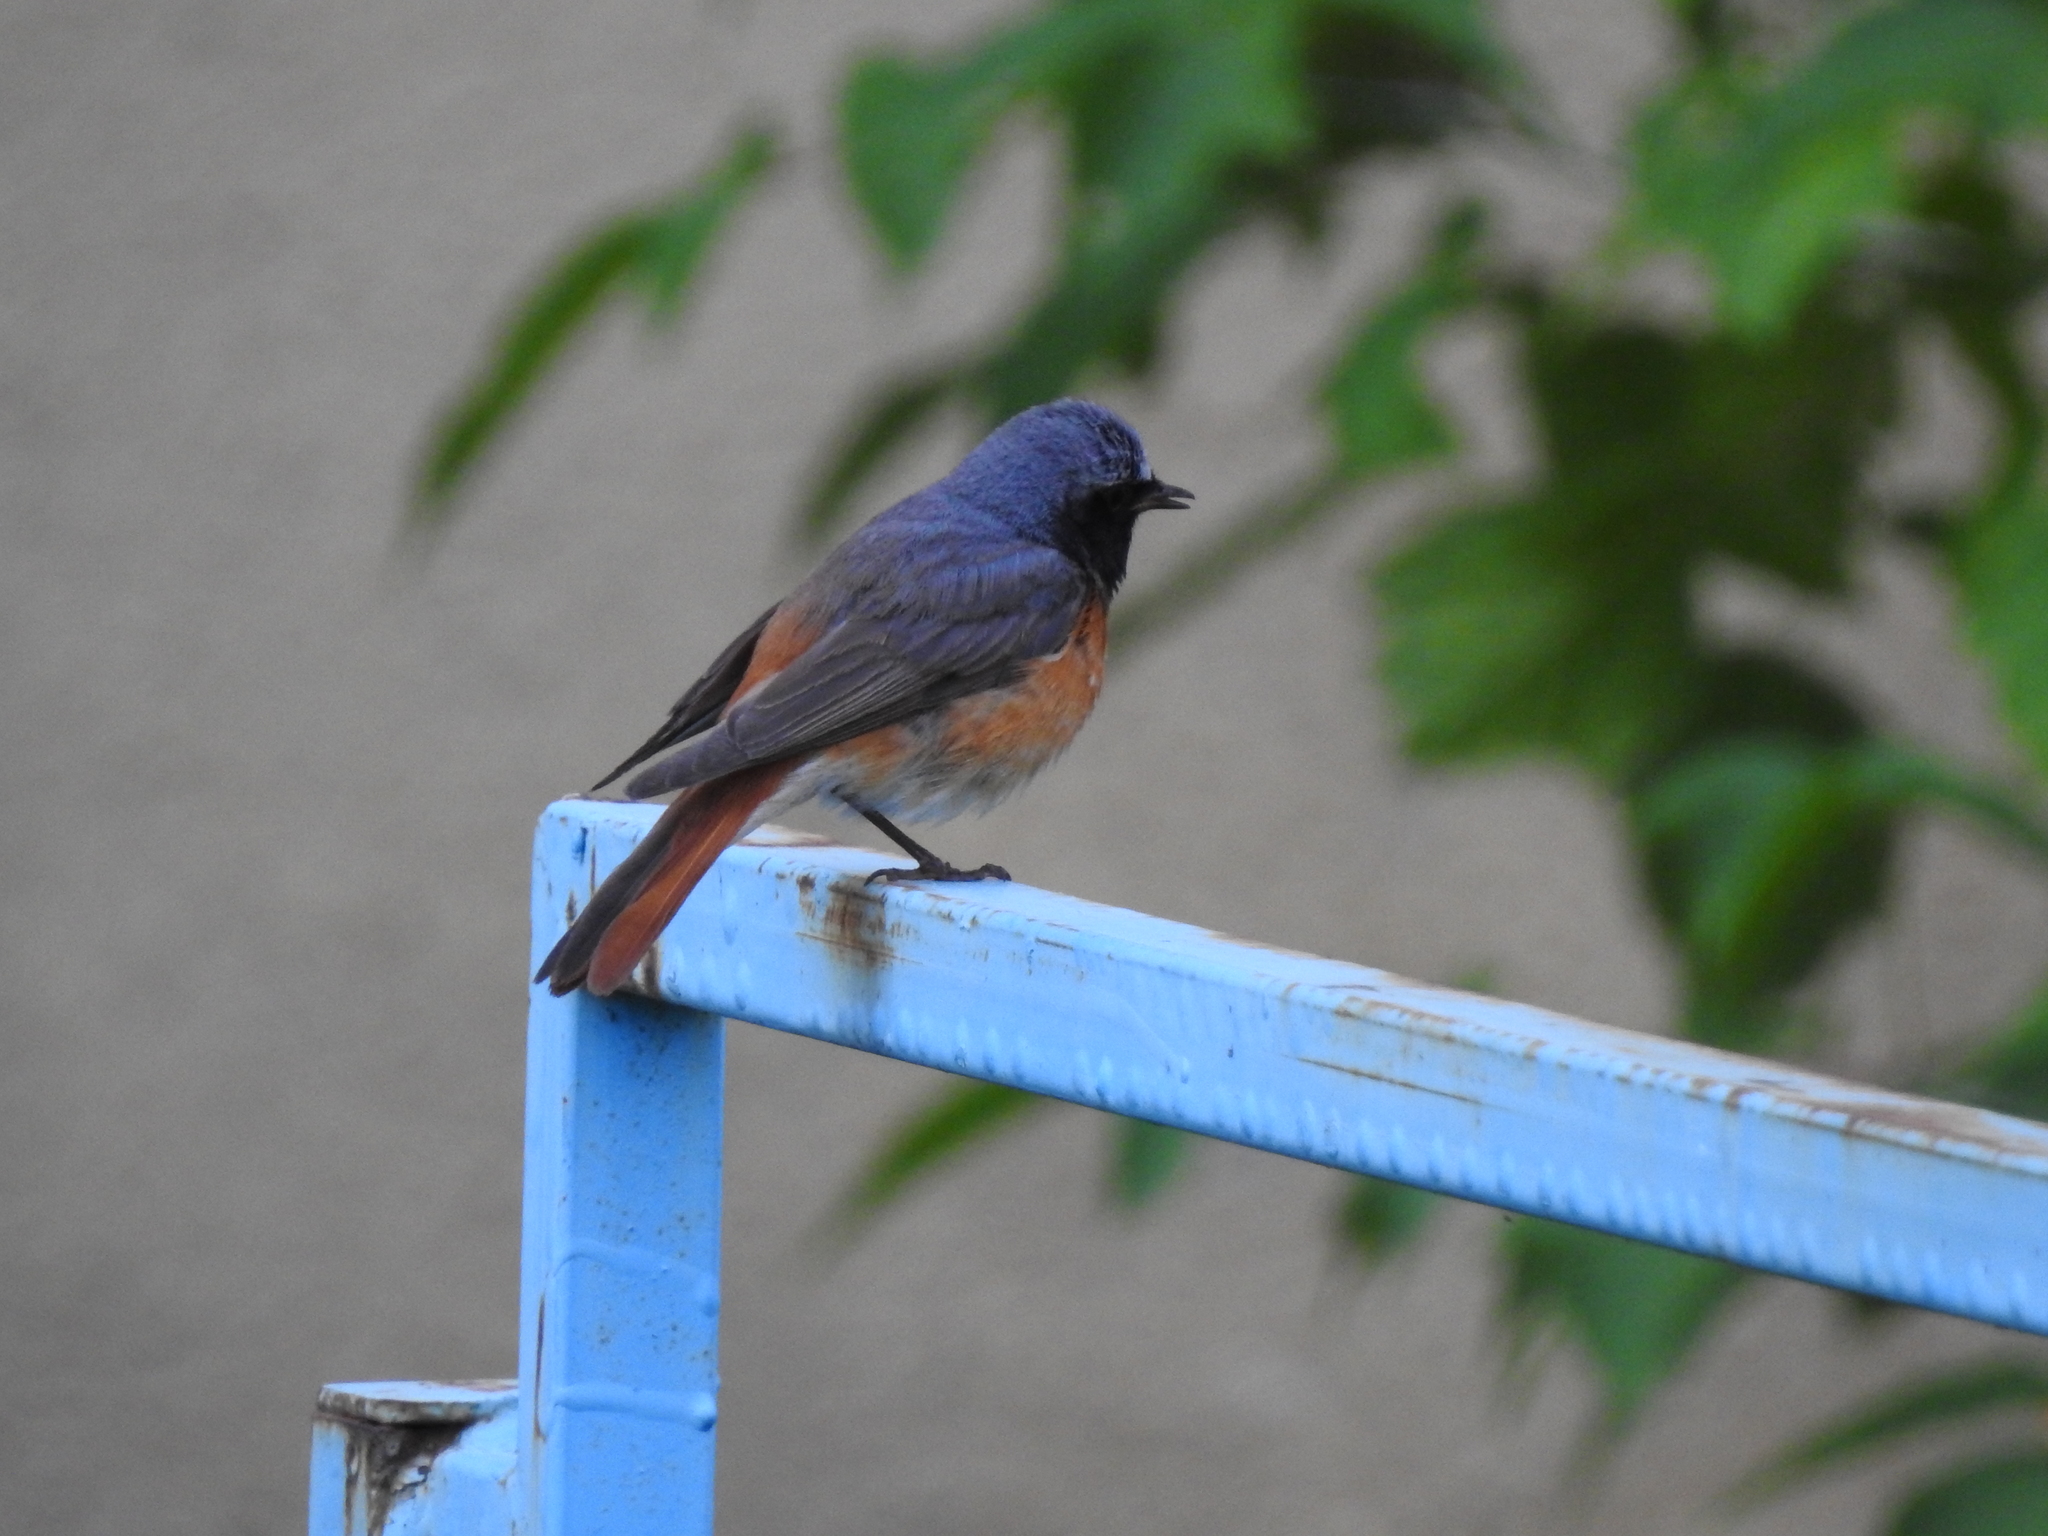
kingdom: Animalia
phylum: Chordata
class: Aves
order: Passeriformes
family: Muscicapidae
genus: Phoenicurus
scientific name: Phoenicurus phoenicurus
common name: Common redstart
